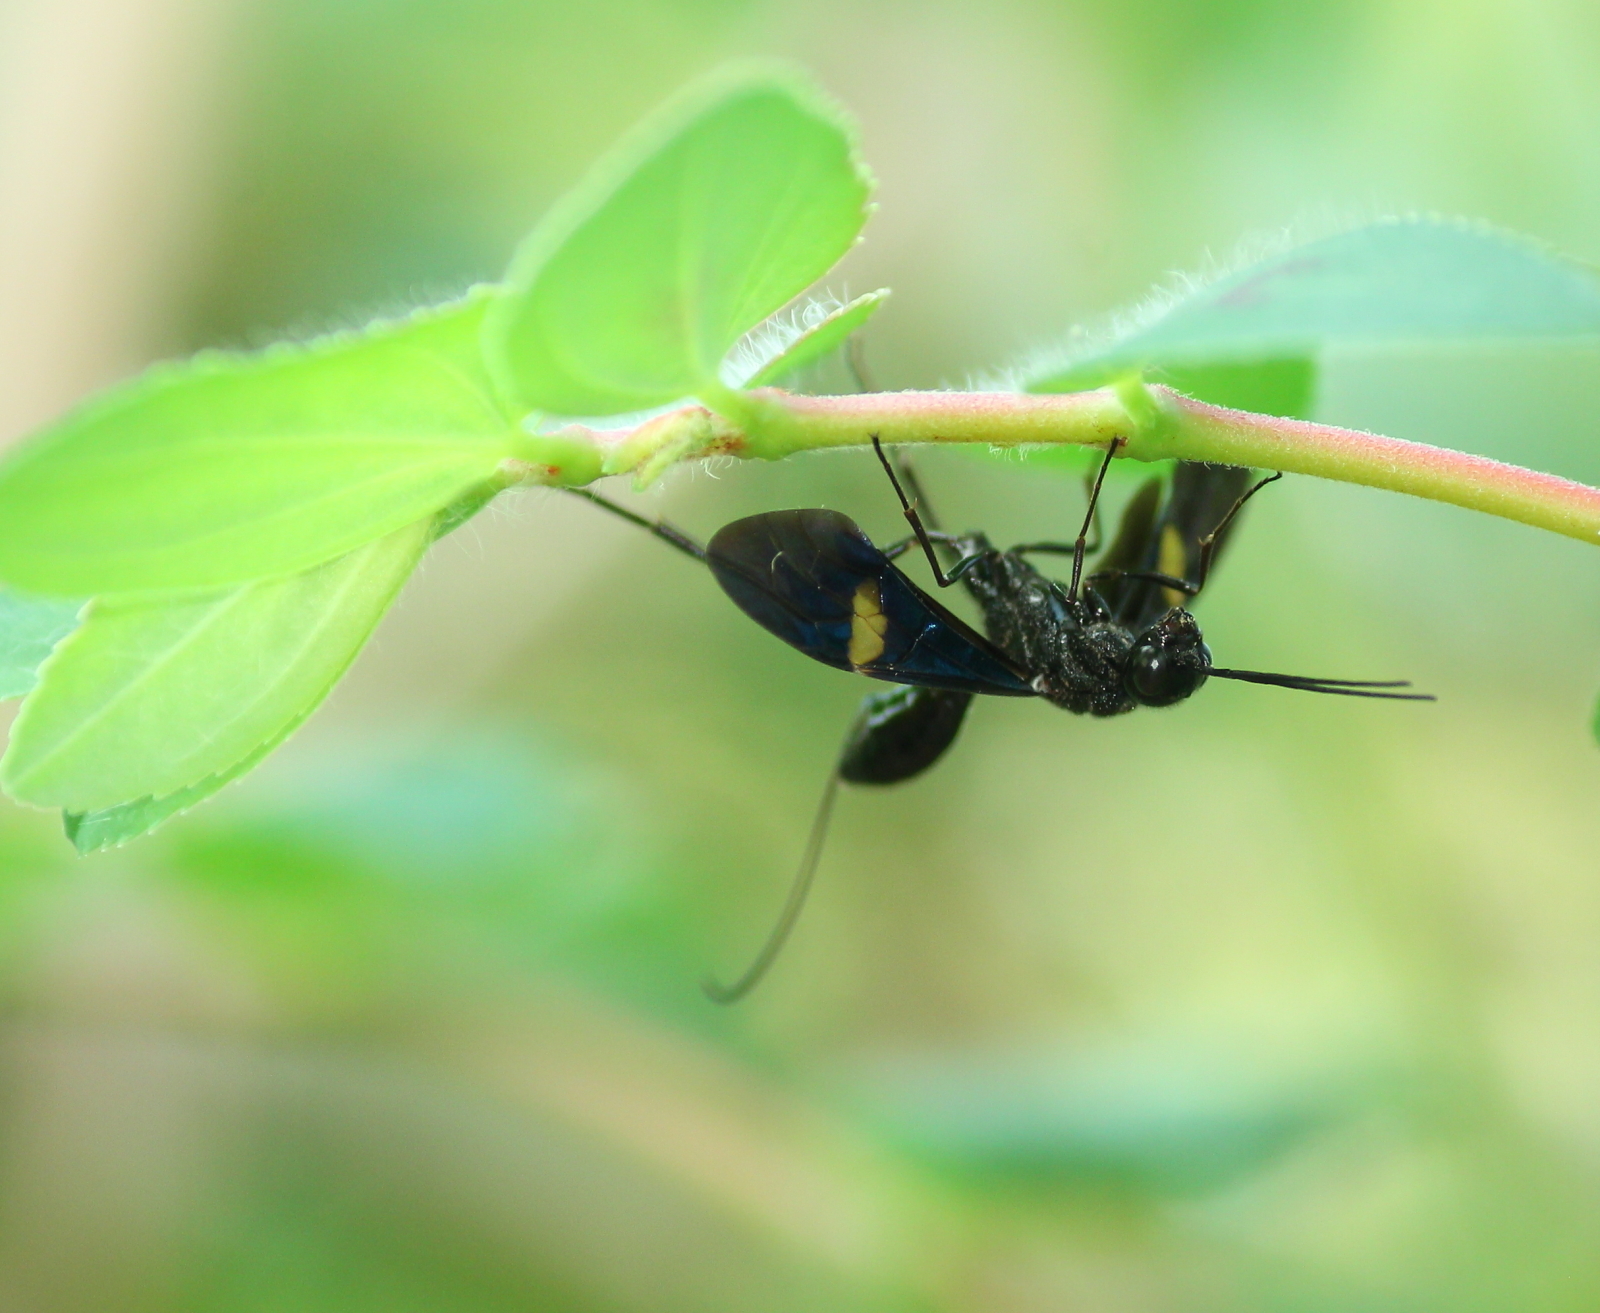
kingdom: Animalia
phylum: Arthropoda
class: Insecta
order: Hymenoptera
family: Aulacidae
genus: Pristaulacus
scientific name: Pristaulacus fasciatus
